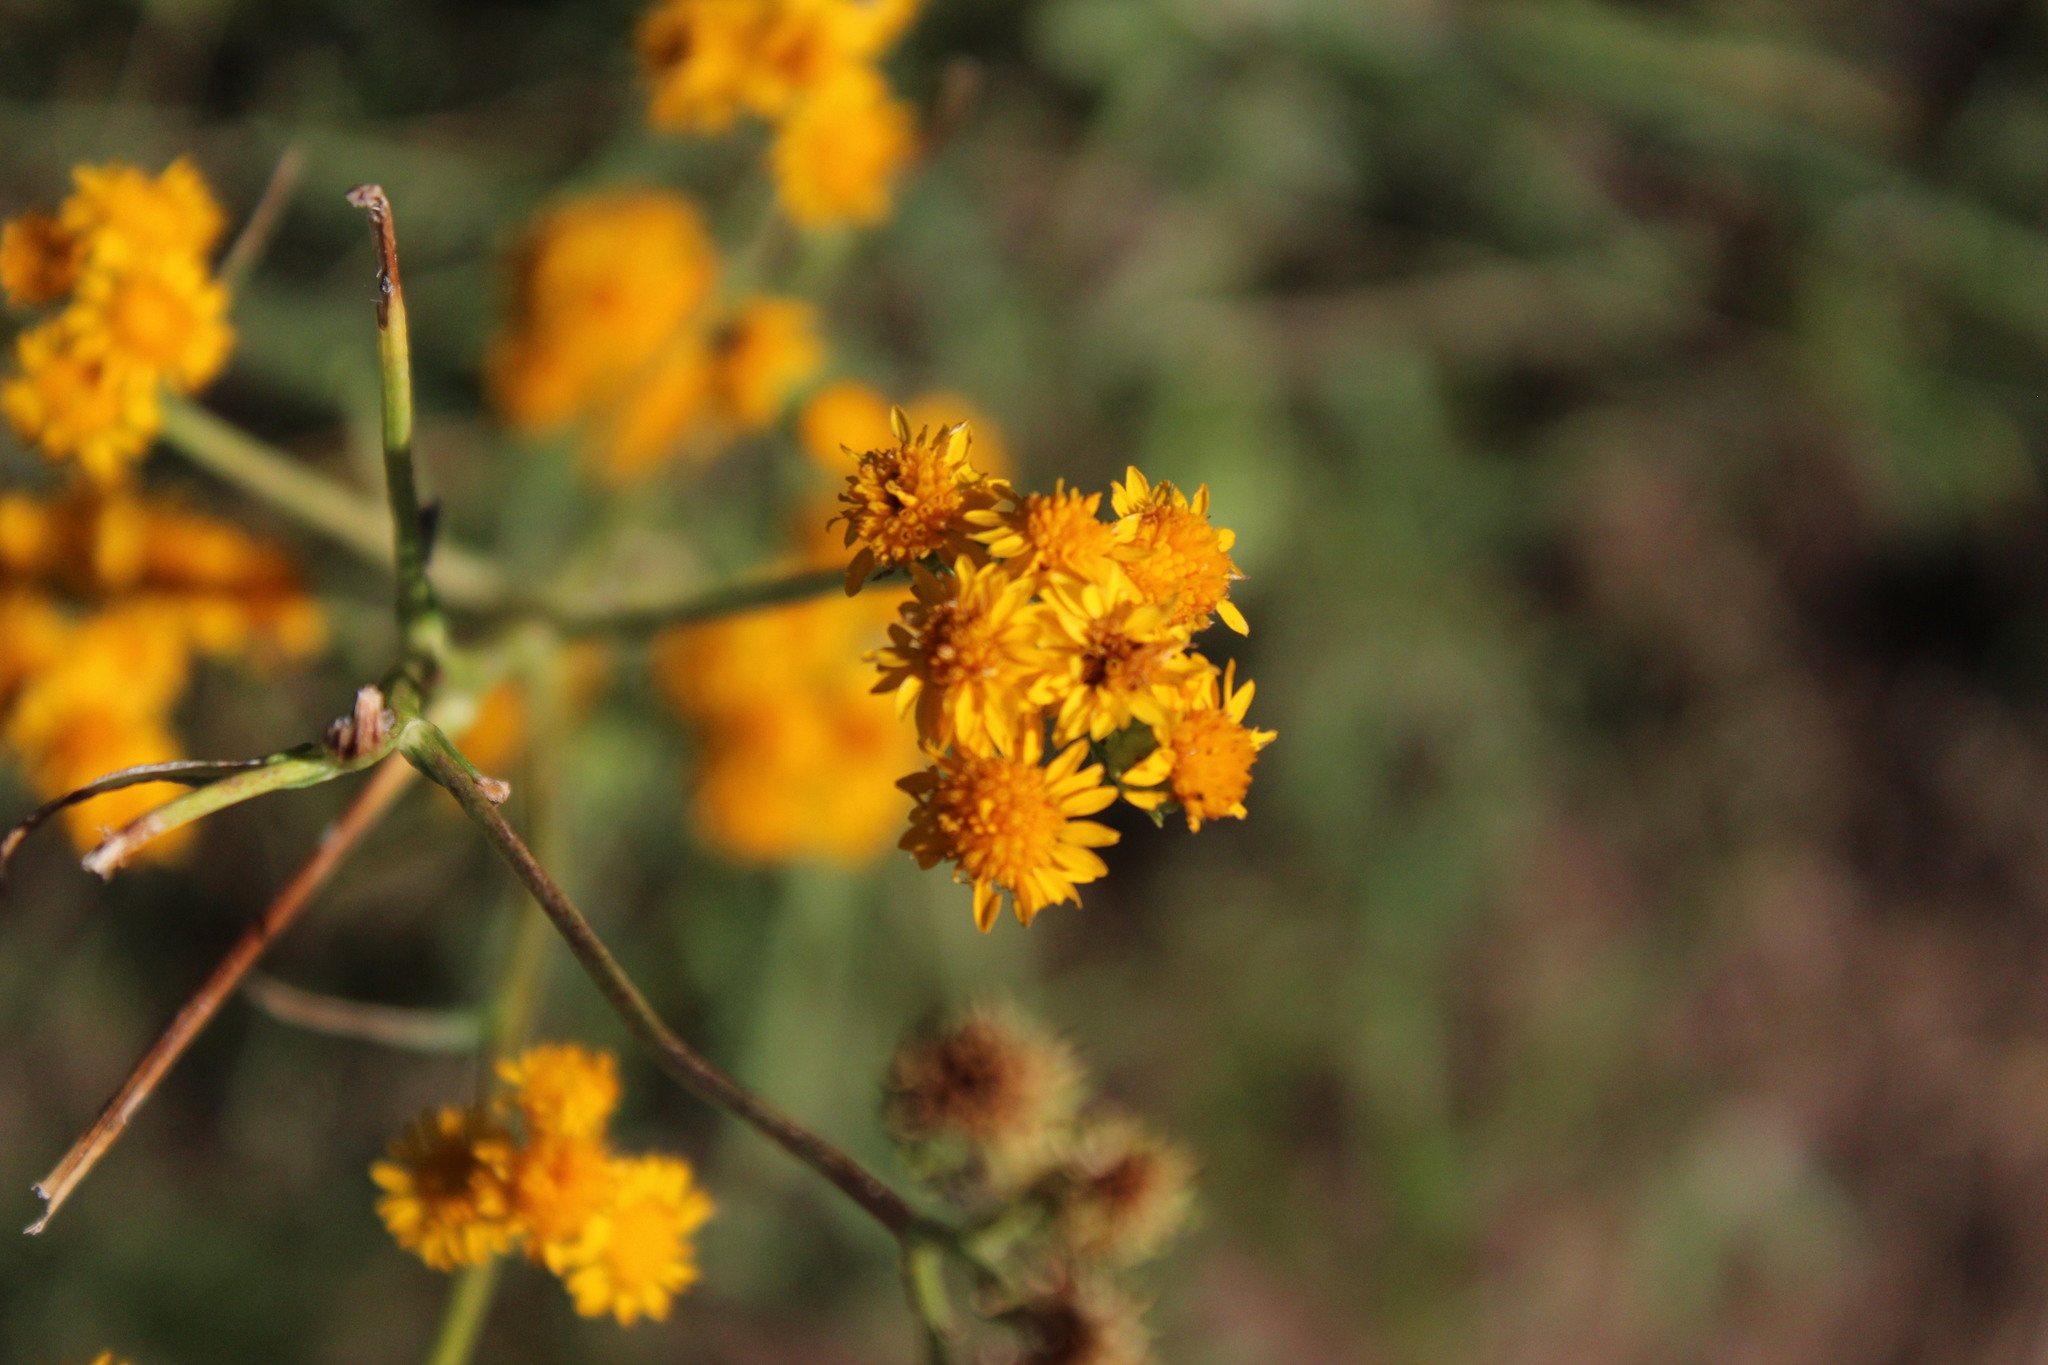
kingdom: Plantae
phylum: Tracheophyta
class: Magnoliopsida
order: Asterales
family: Asteraceae
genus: Xanthocephalum
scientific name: Xanthocephalum gymnospermoides
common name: San pedro matchweed
